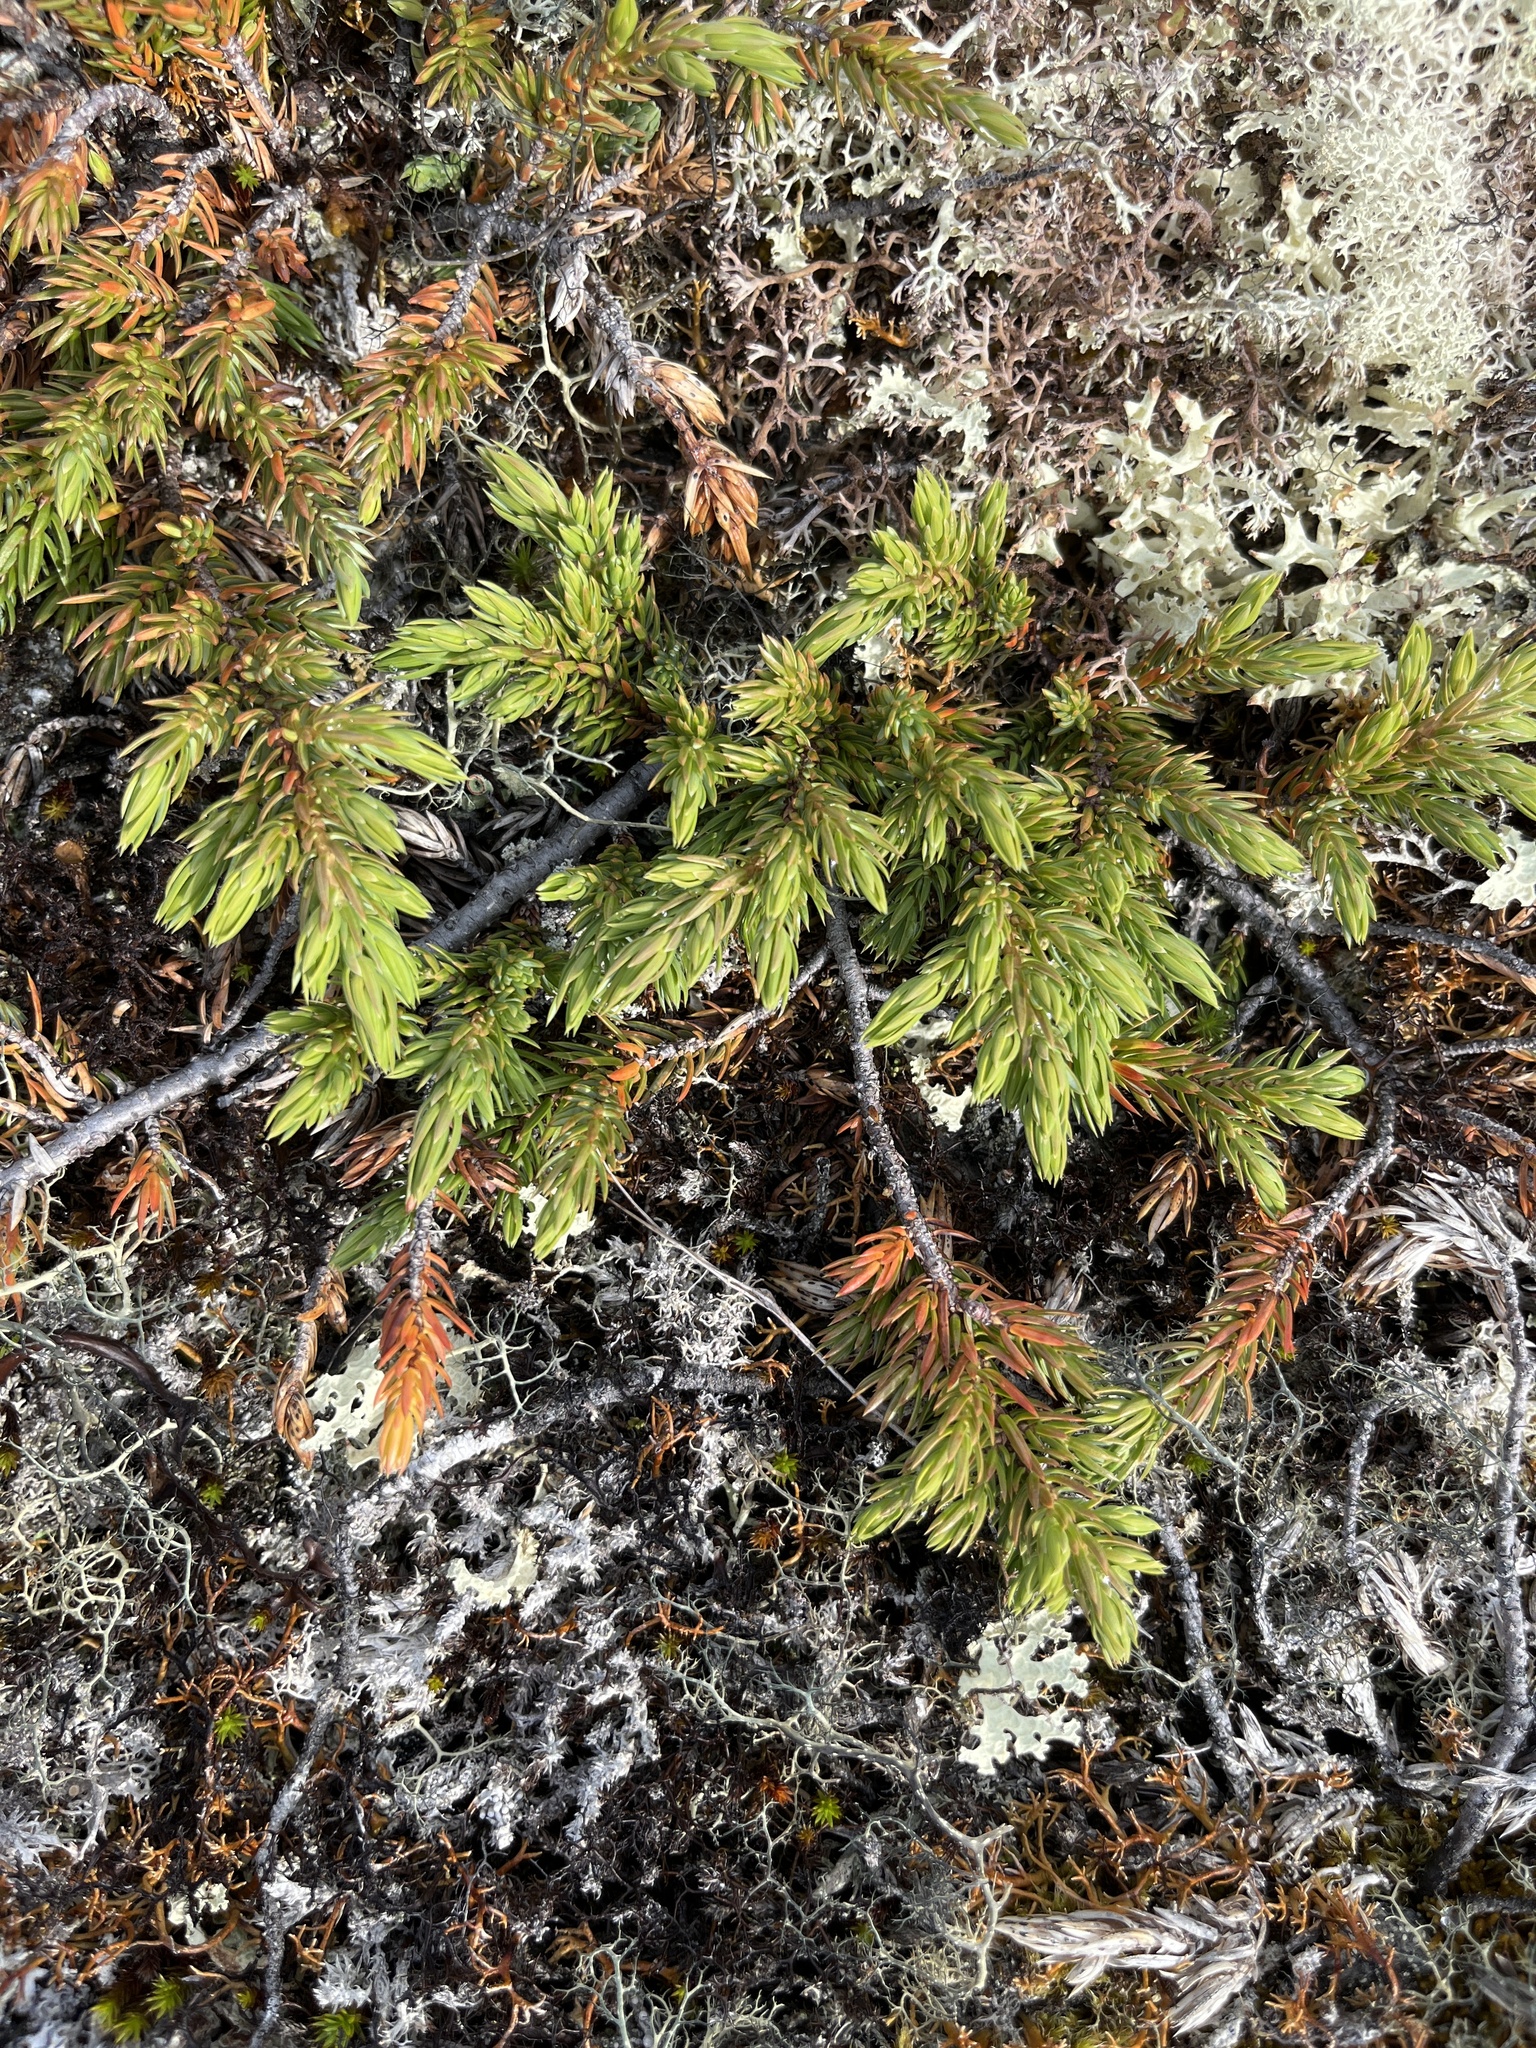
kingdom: Plantae
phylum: Tracheophyta
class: Pinopsida
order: Pinales
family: Cupressaceae
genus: Juniperus
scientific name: Juniperus communis
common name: Common juniper
